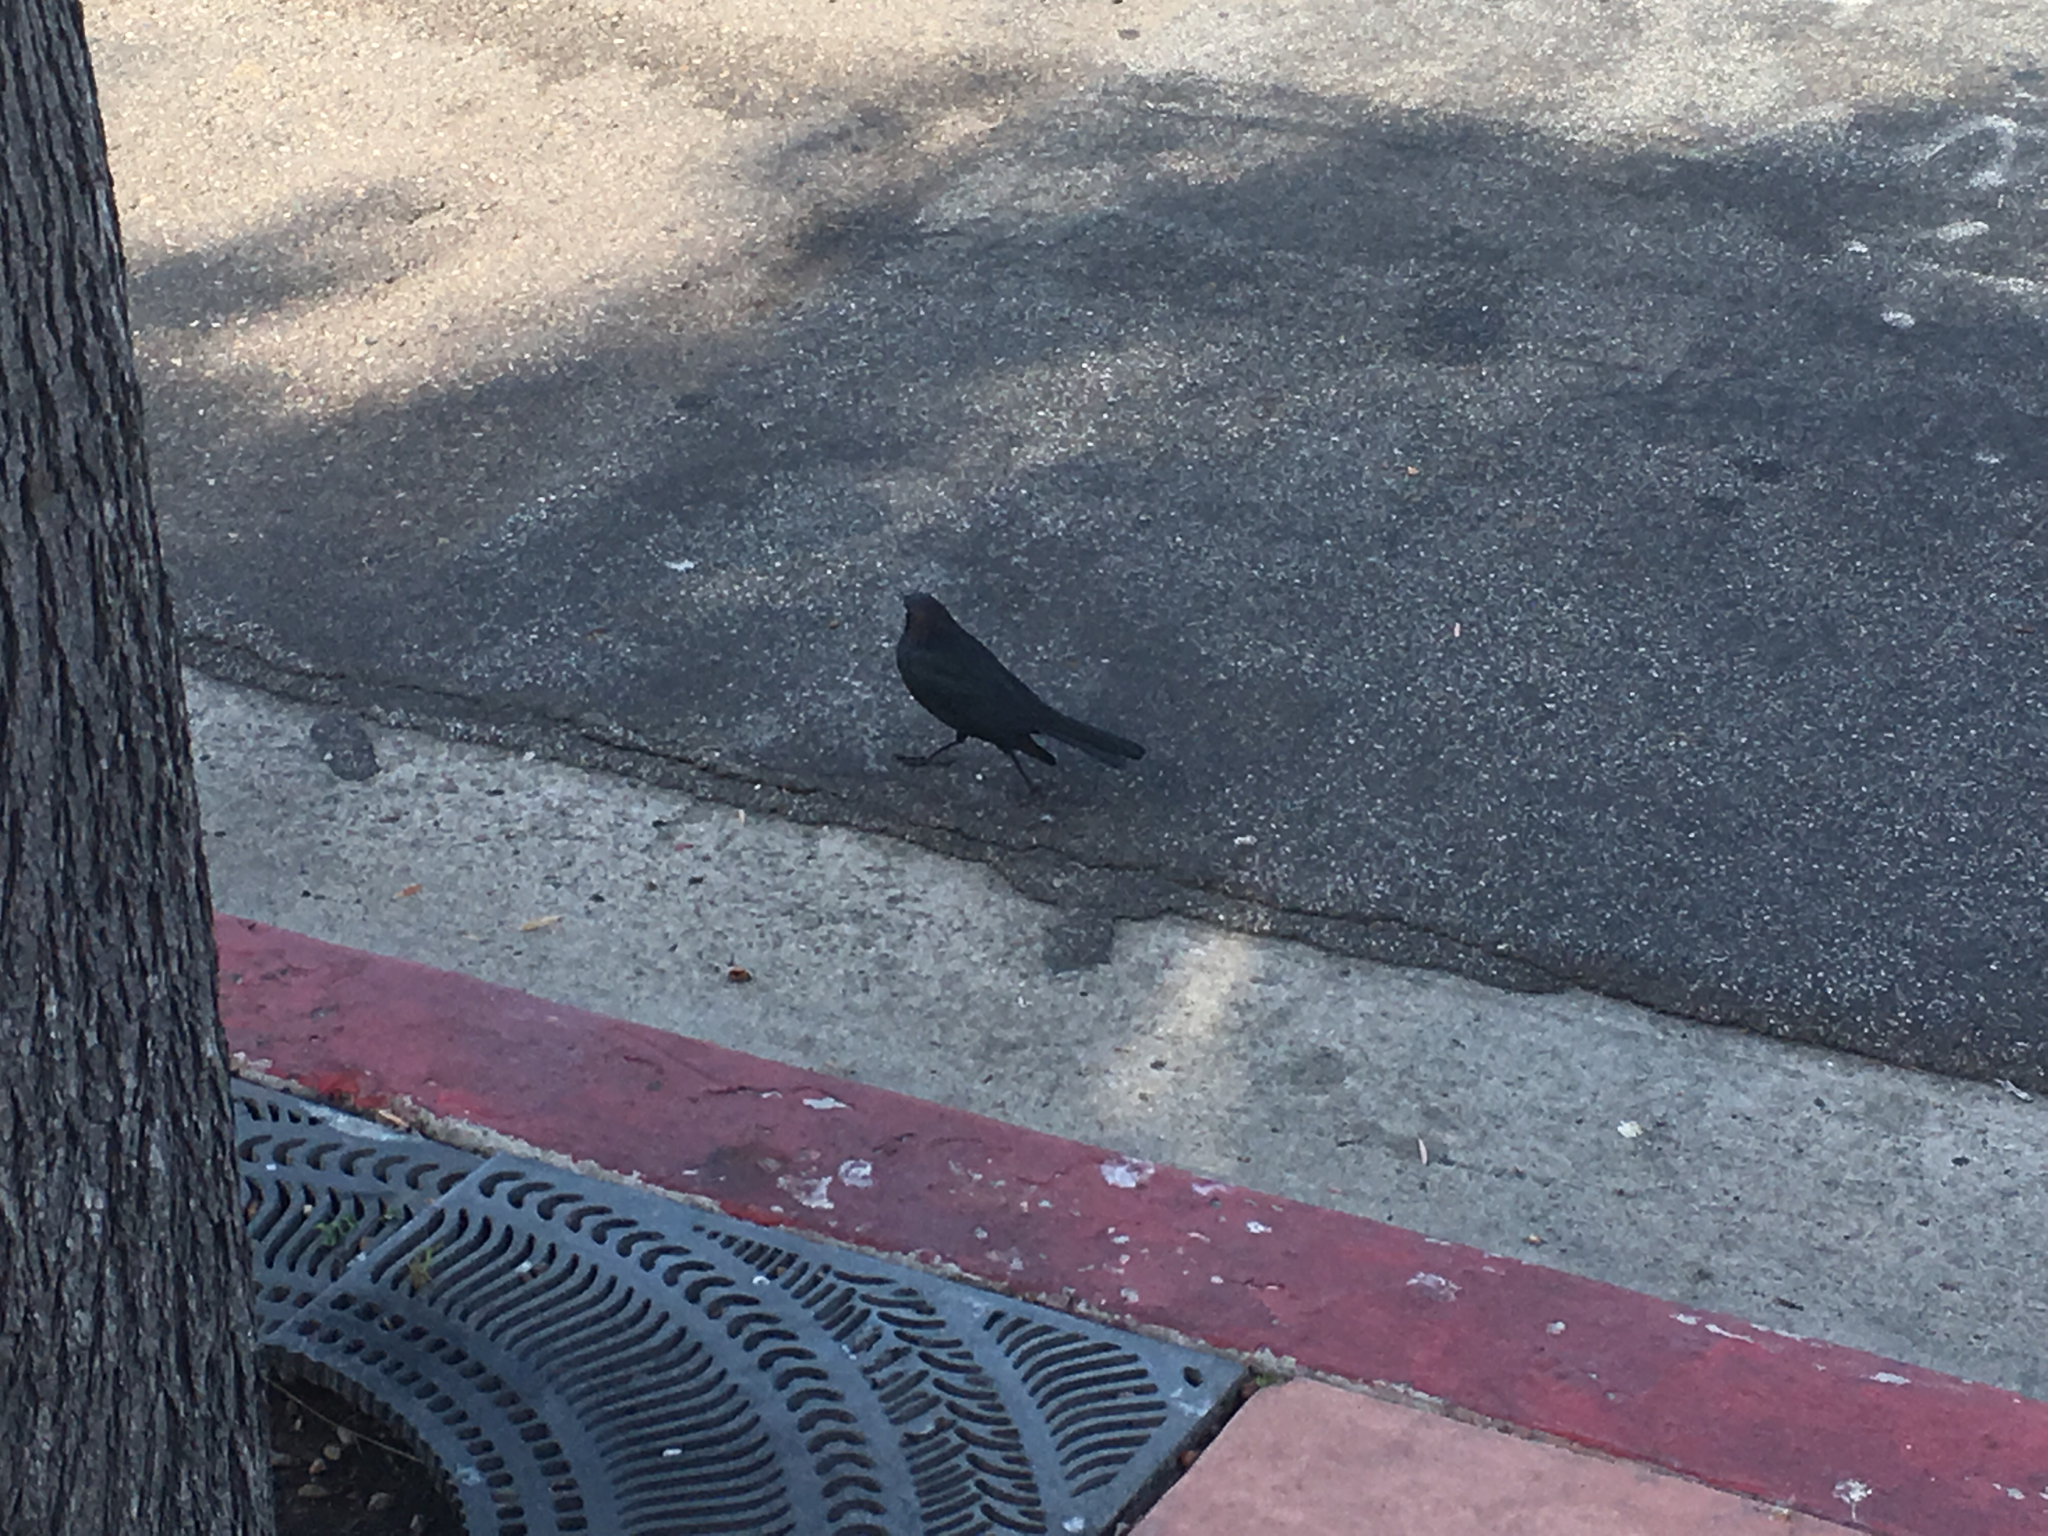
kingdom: Animalia
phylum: Chordata
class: Aves
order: Passeriformes
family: Icteridae
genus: Euphagus
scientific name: Euphagus cyanocephalus
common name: Brewer's blackbird
